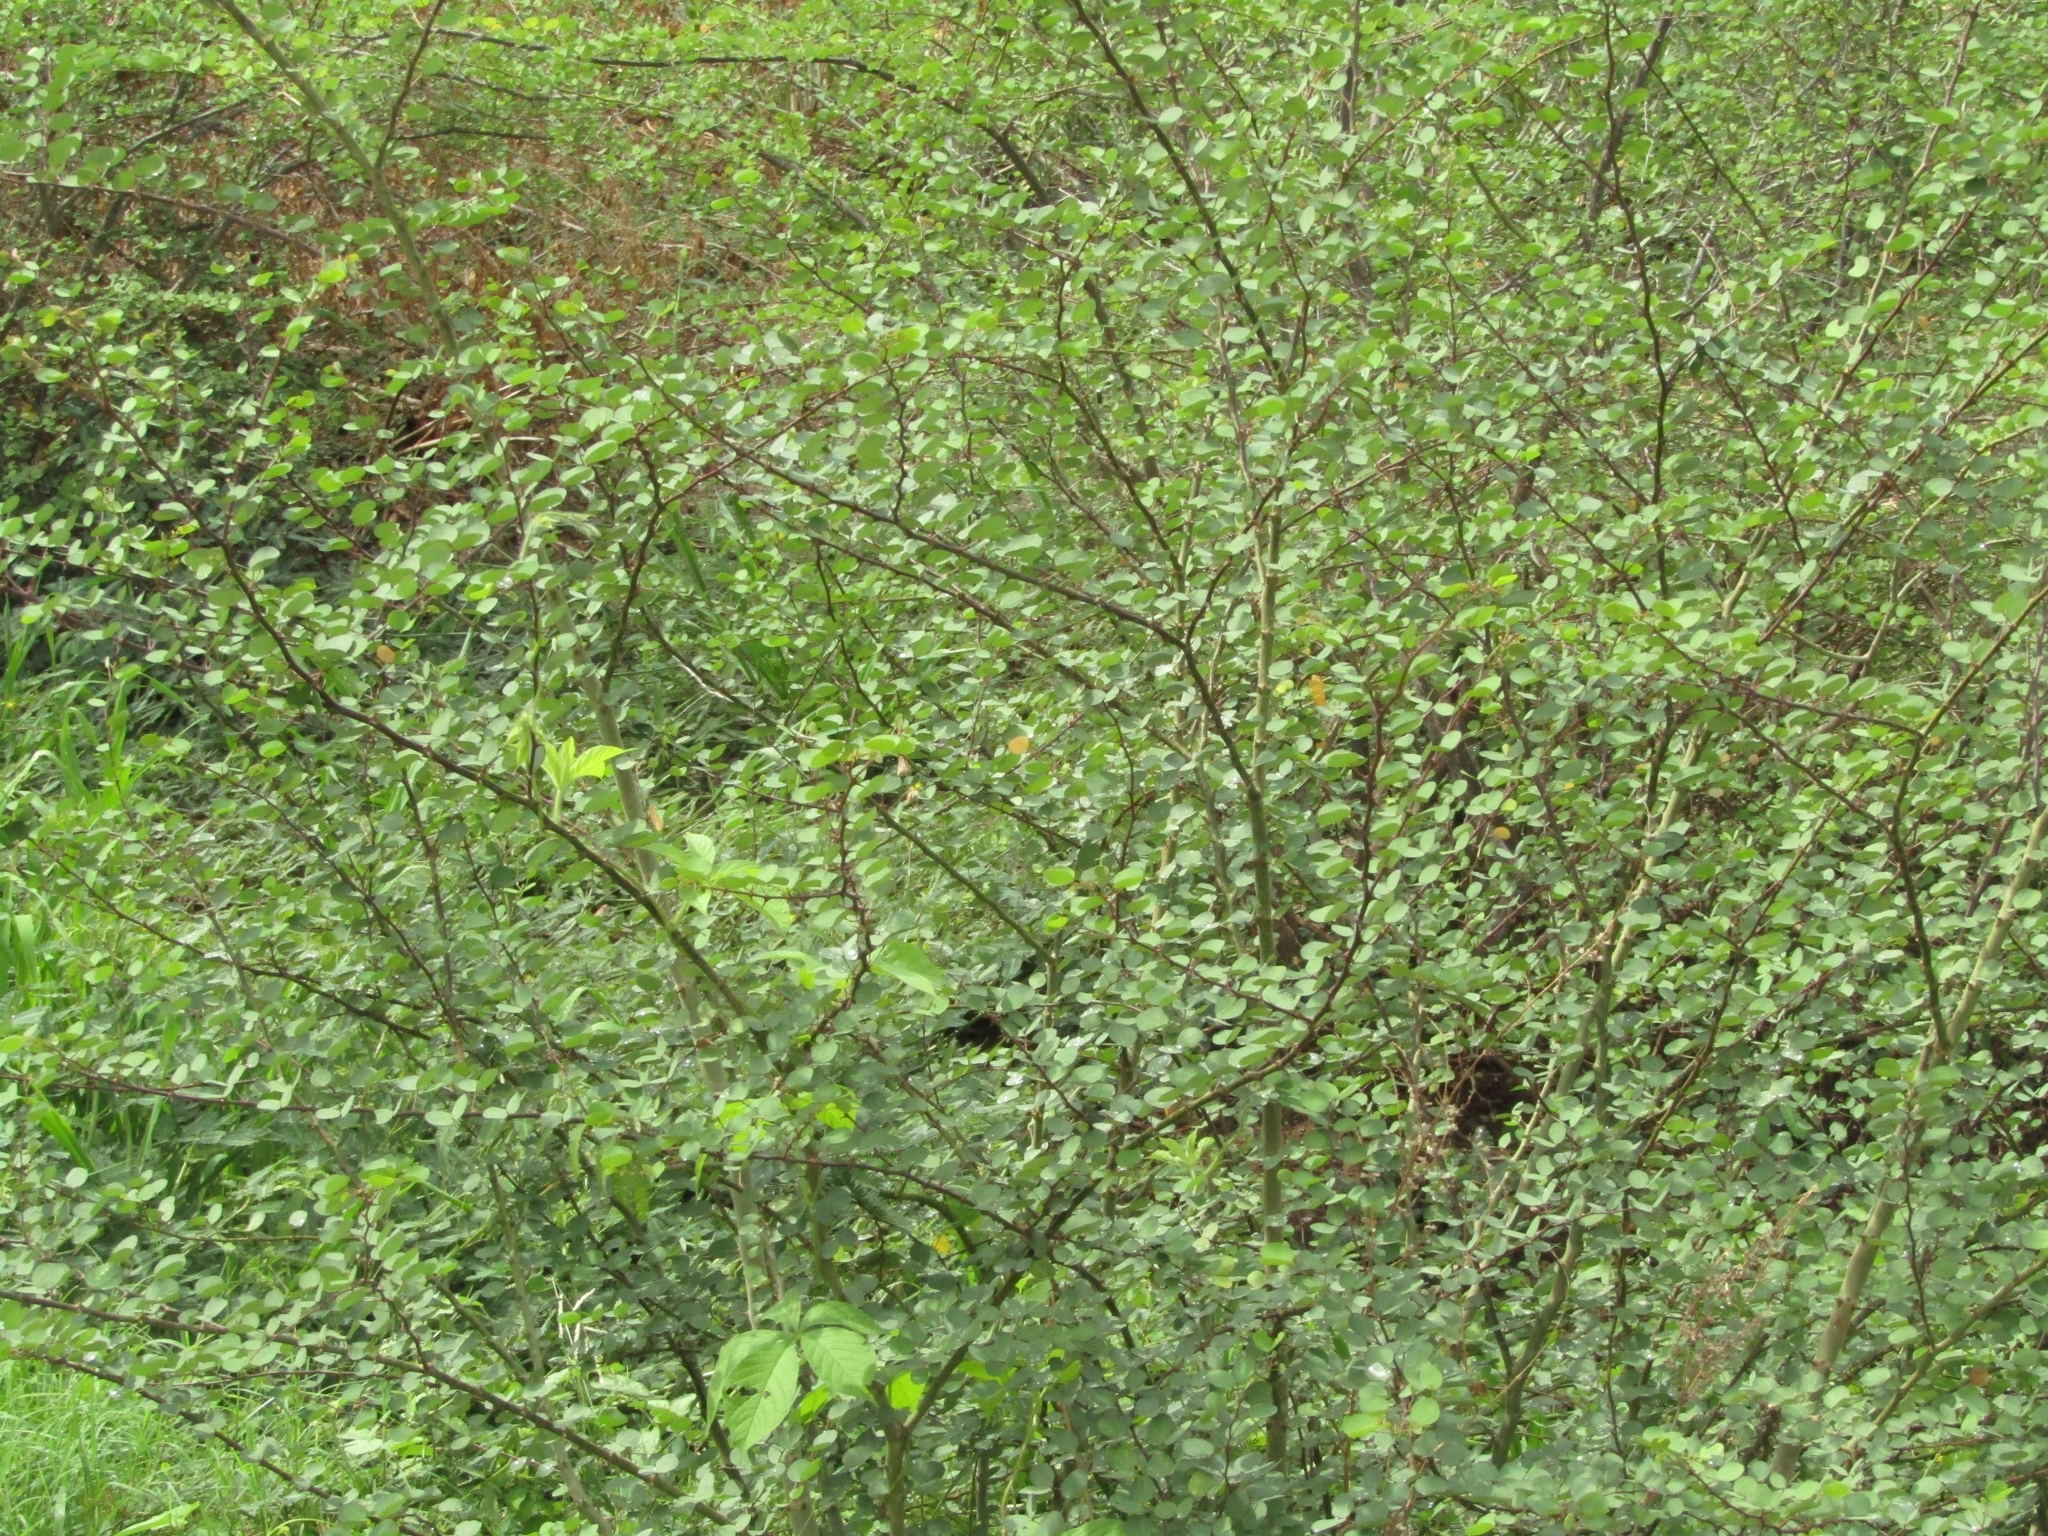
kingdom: Plantae
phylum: Tracheophyta
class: Magnoliopsida
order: Fabales
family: Fabaceae
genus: Bauhinia
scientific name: Bauhinia bauhinioides
